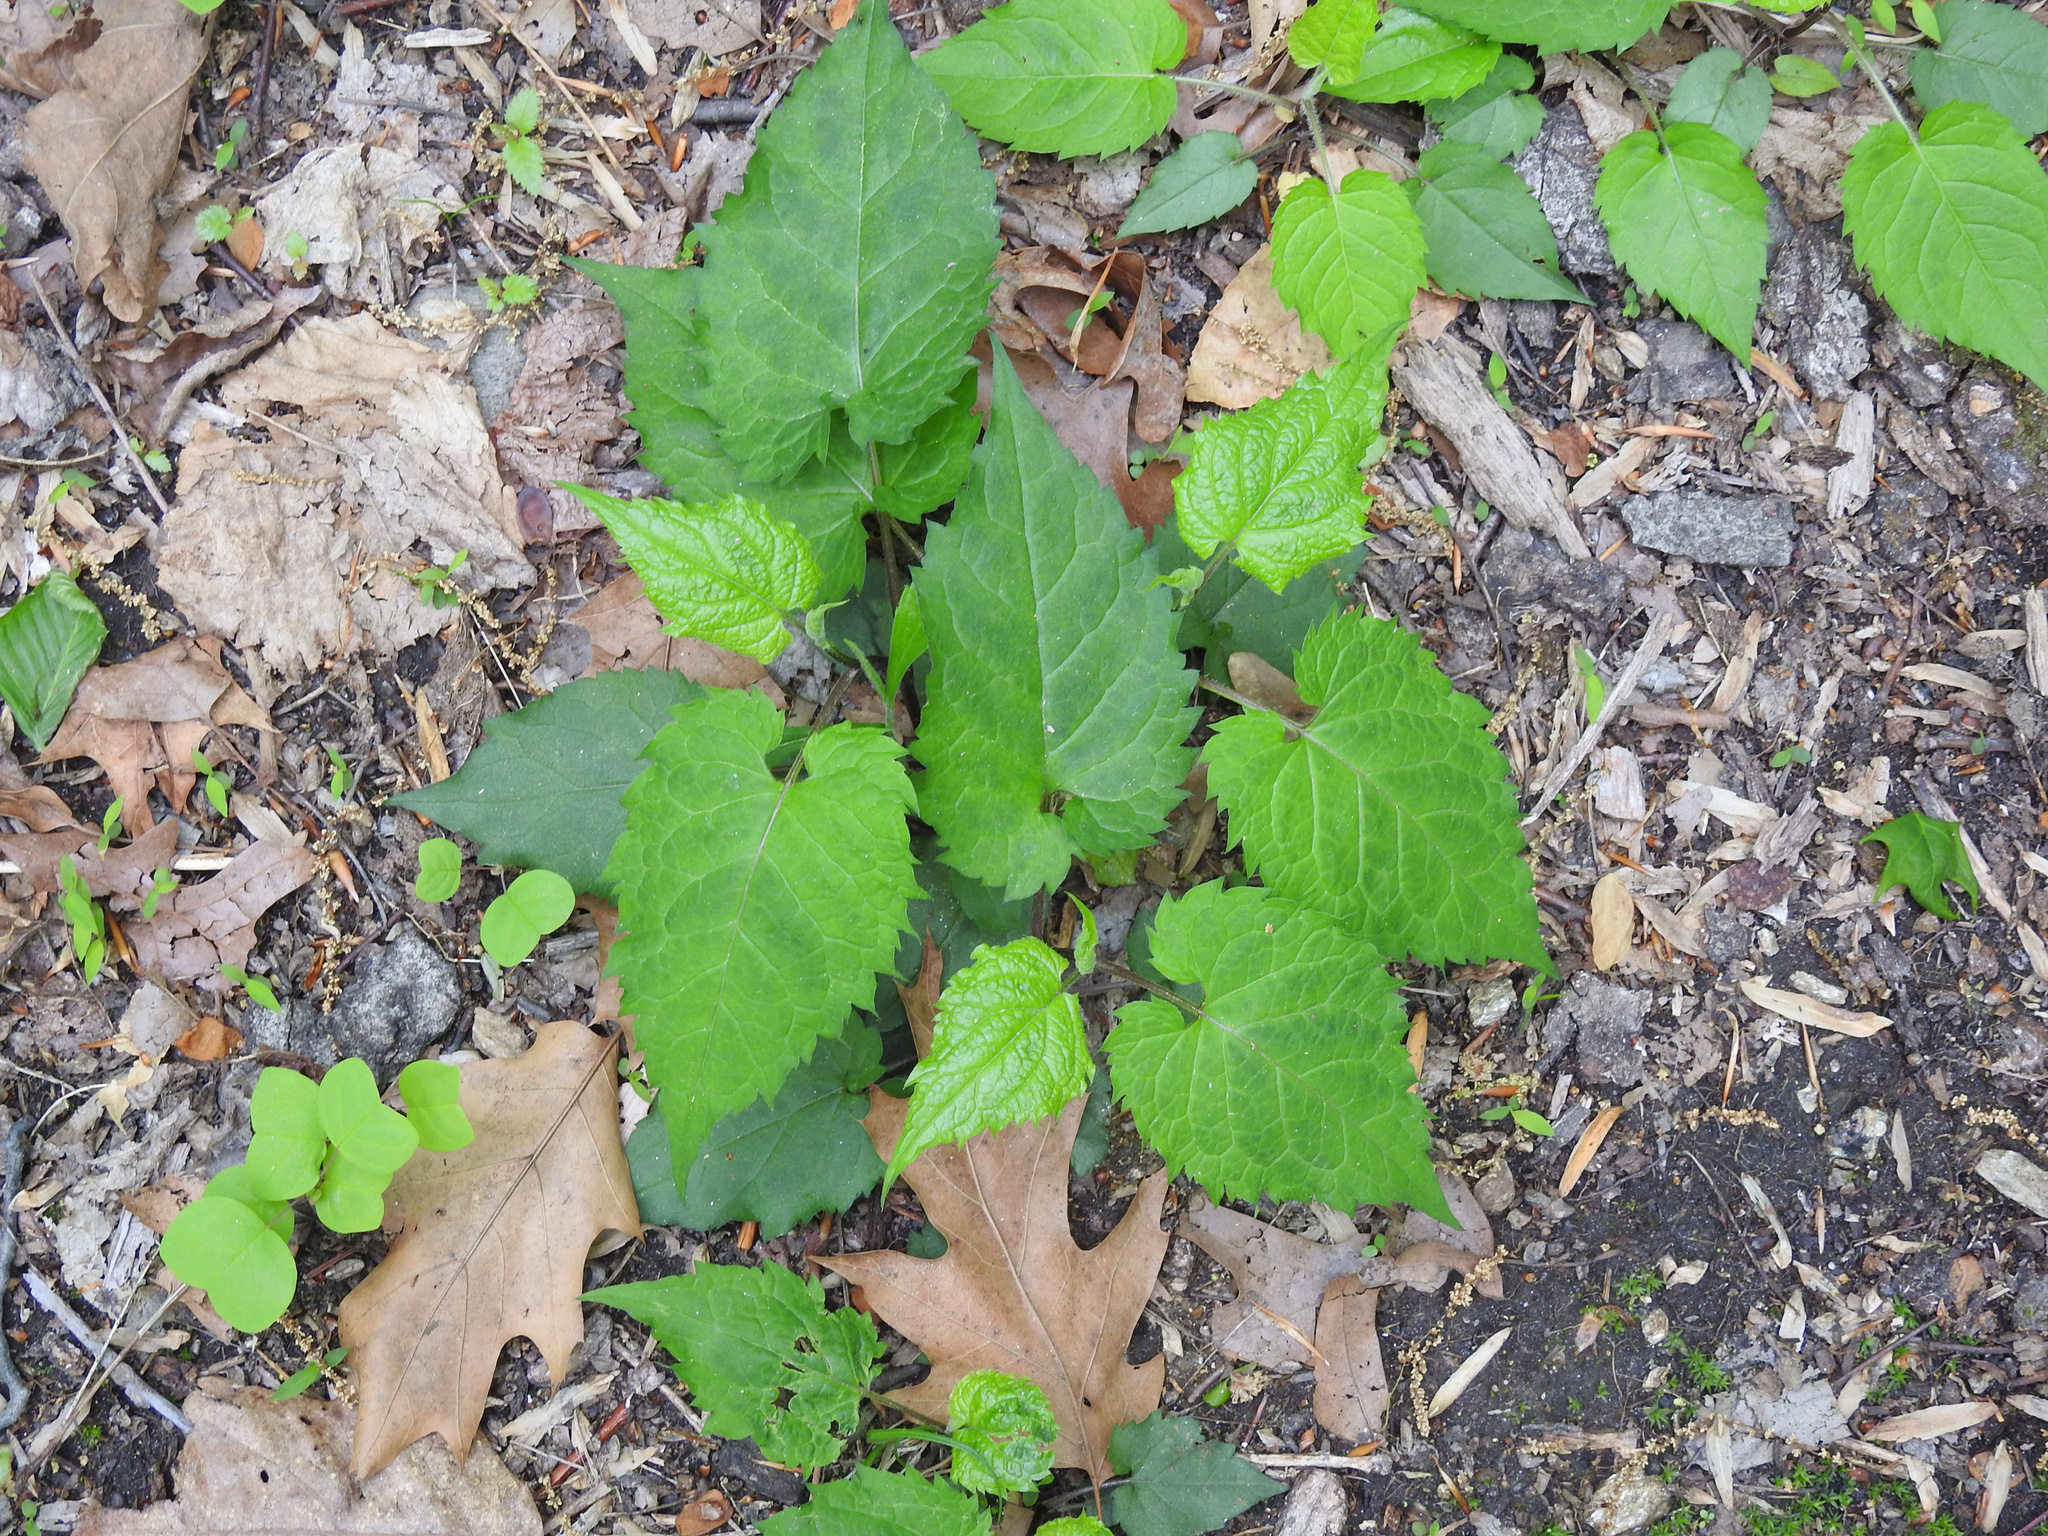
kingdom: Plantae
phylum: Tracheophyta
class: Magnoliopsida
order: Asterales
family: Asteraceae
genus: Eurybia
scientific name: Eurybia divaricata
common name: White wood aster
